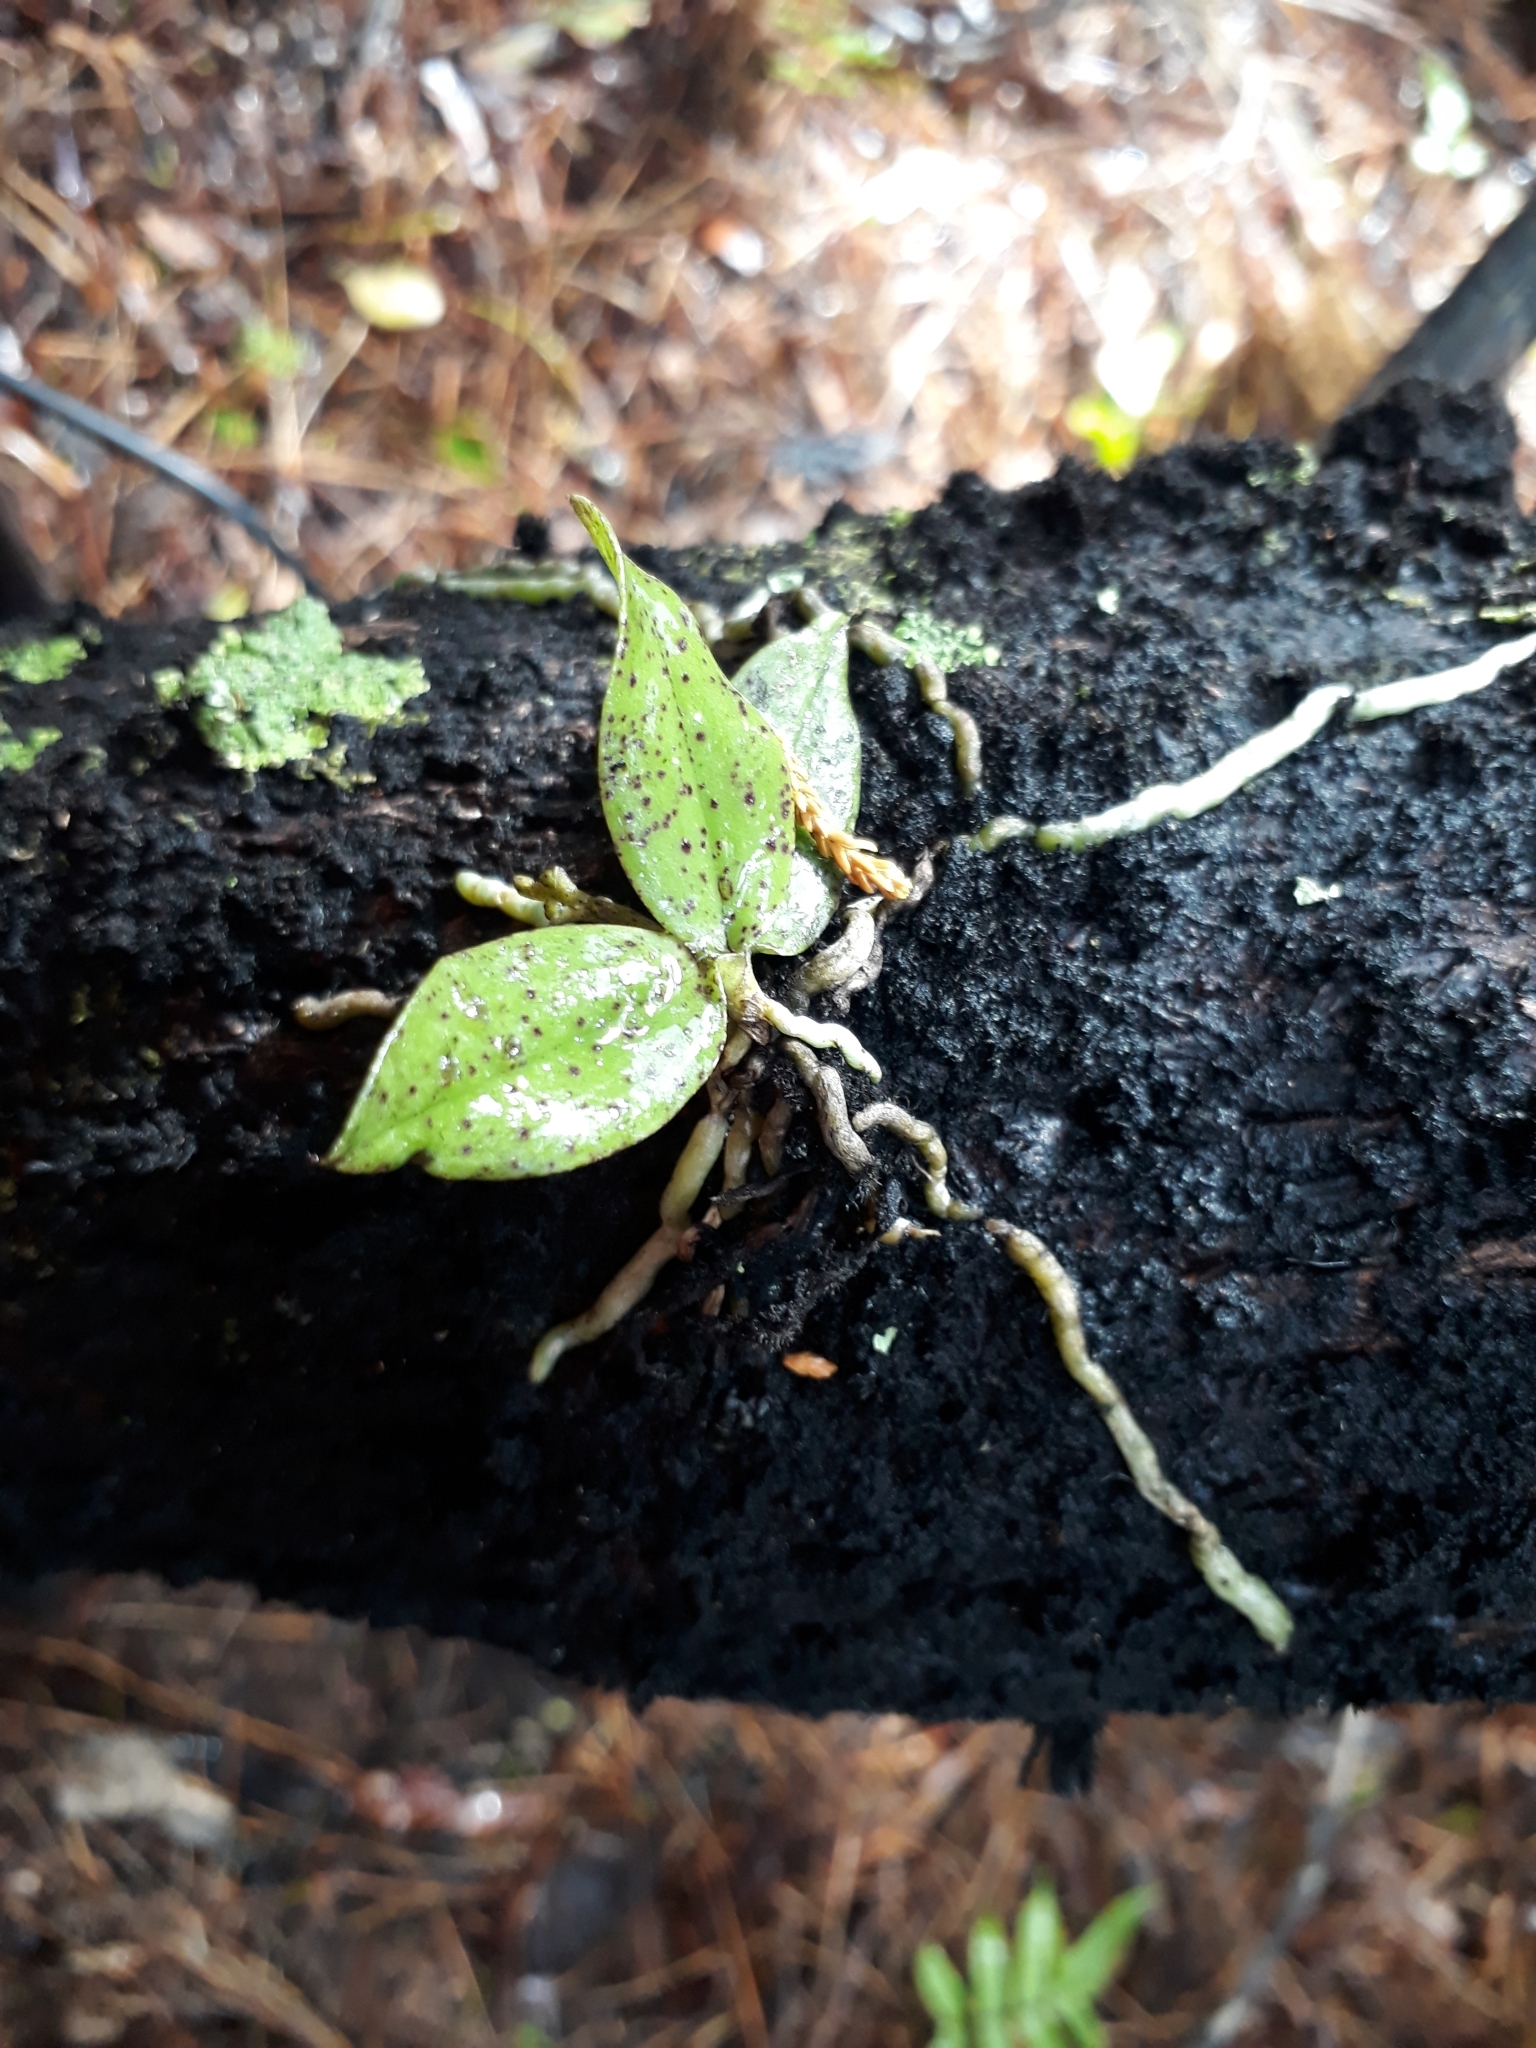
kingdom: Plantae
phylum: Tracheophyta
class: Liliopsida
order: Asparagales
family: Orchidaceae
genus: Drymoanthus
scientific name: Drymoanthus flavus
